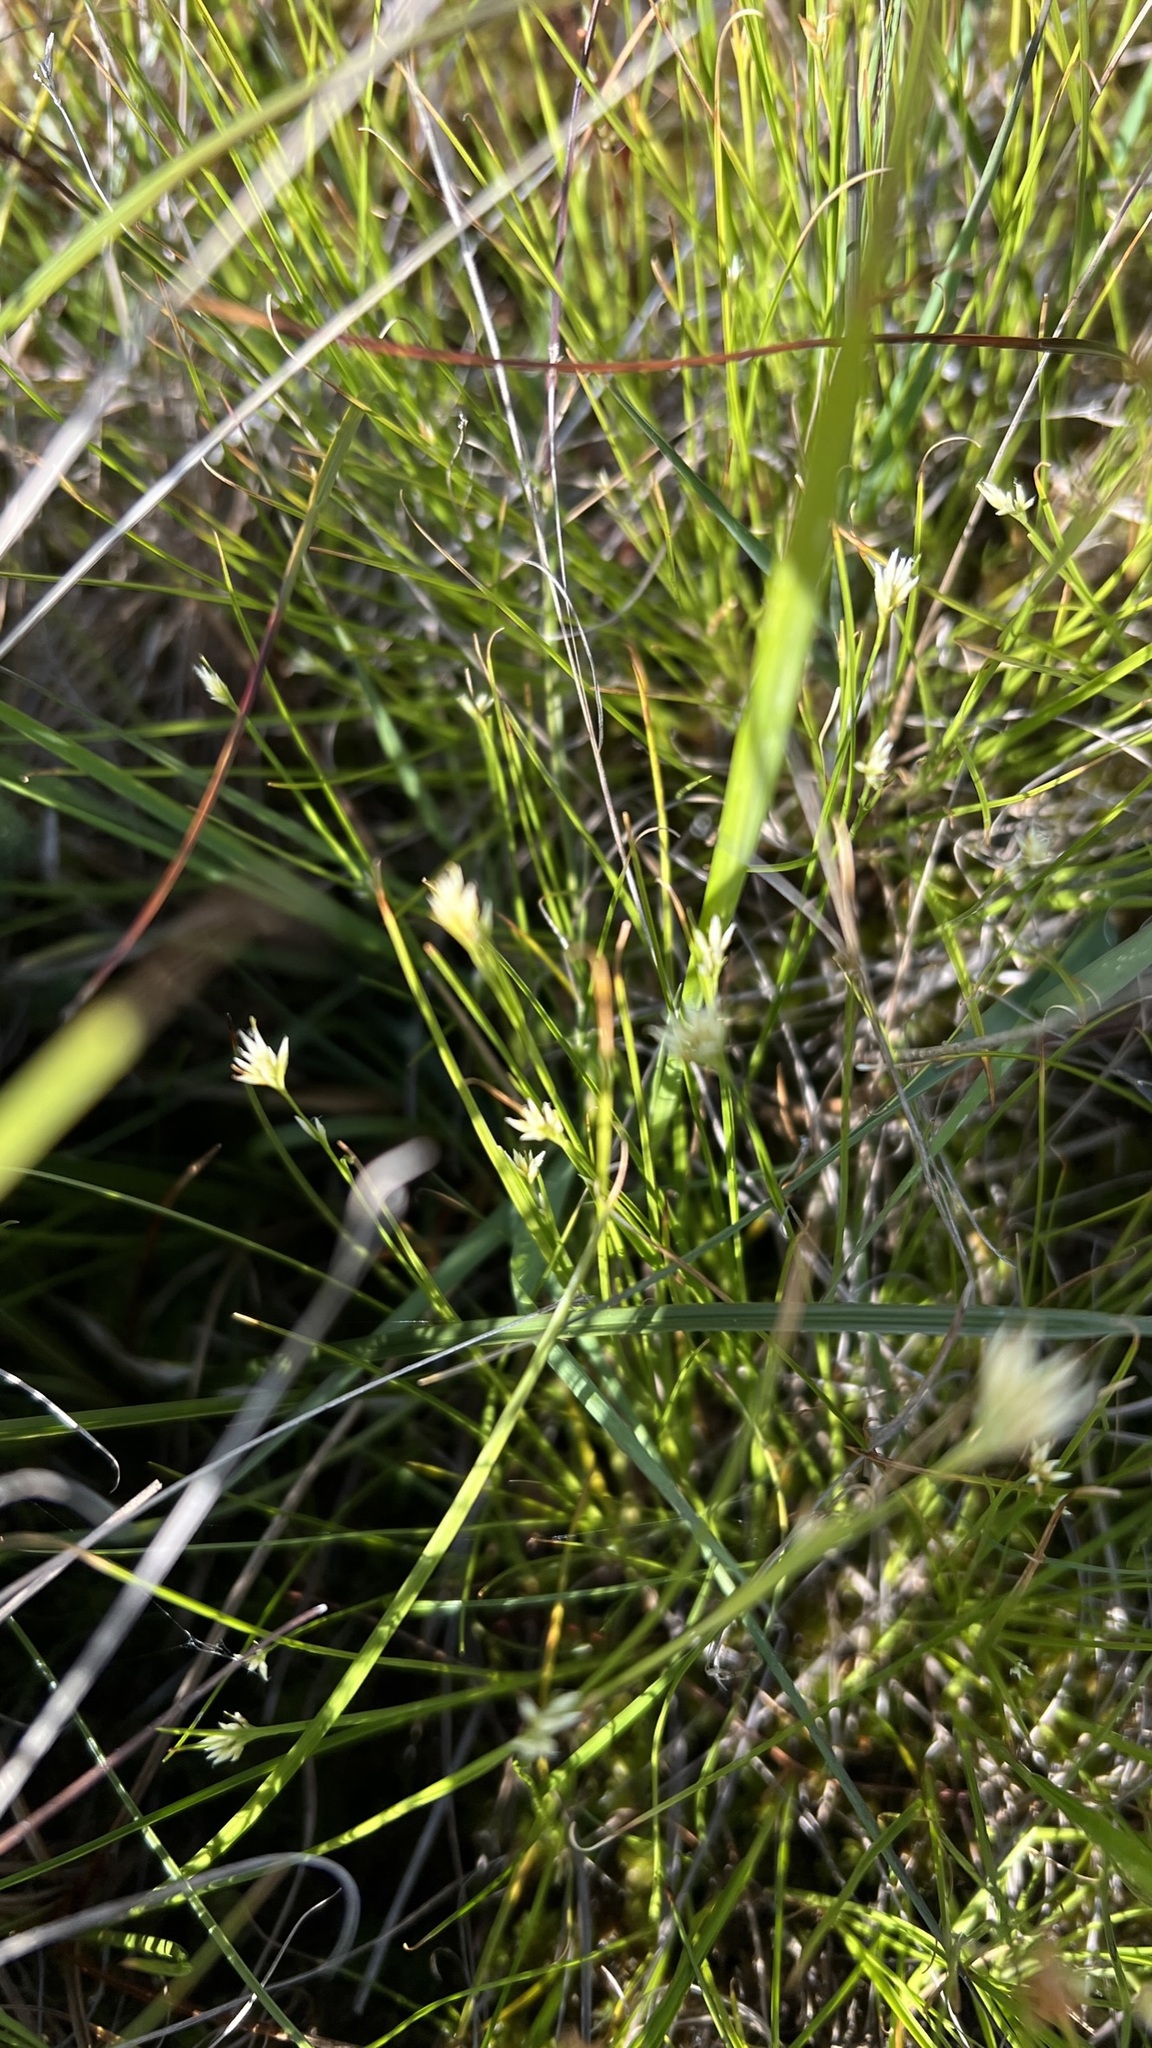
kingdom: Plantae
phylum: Tracheophyta
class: Liliopsida
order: Poales
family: Cyperaceae
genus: Rhynchospora
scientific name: Rhynchospora alba
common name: White beak-sedge
